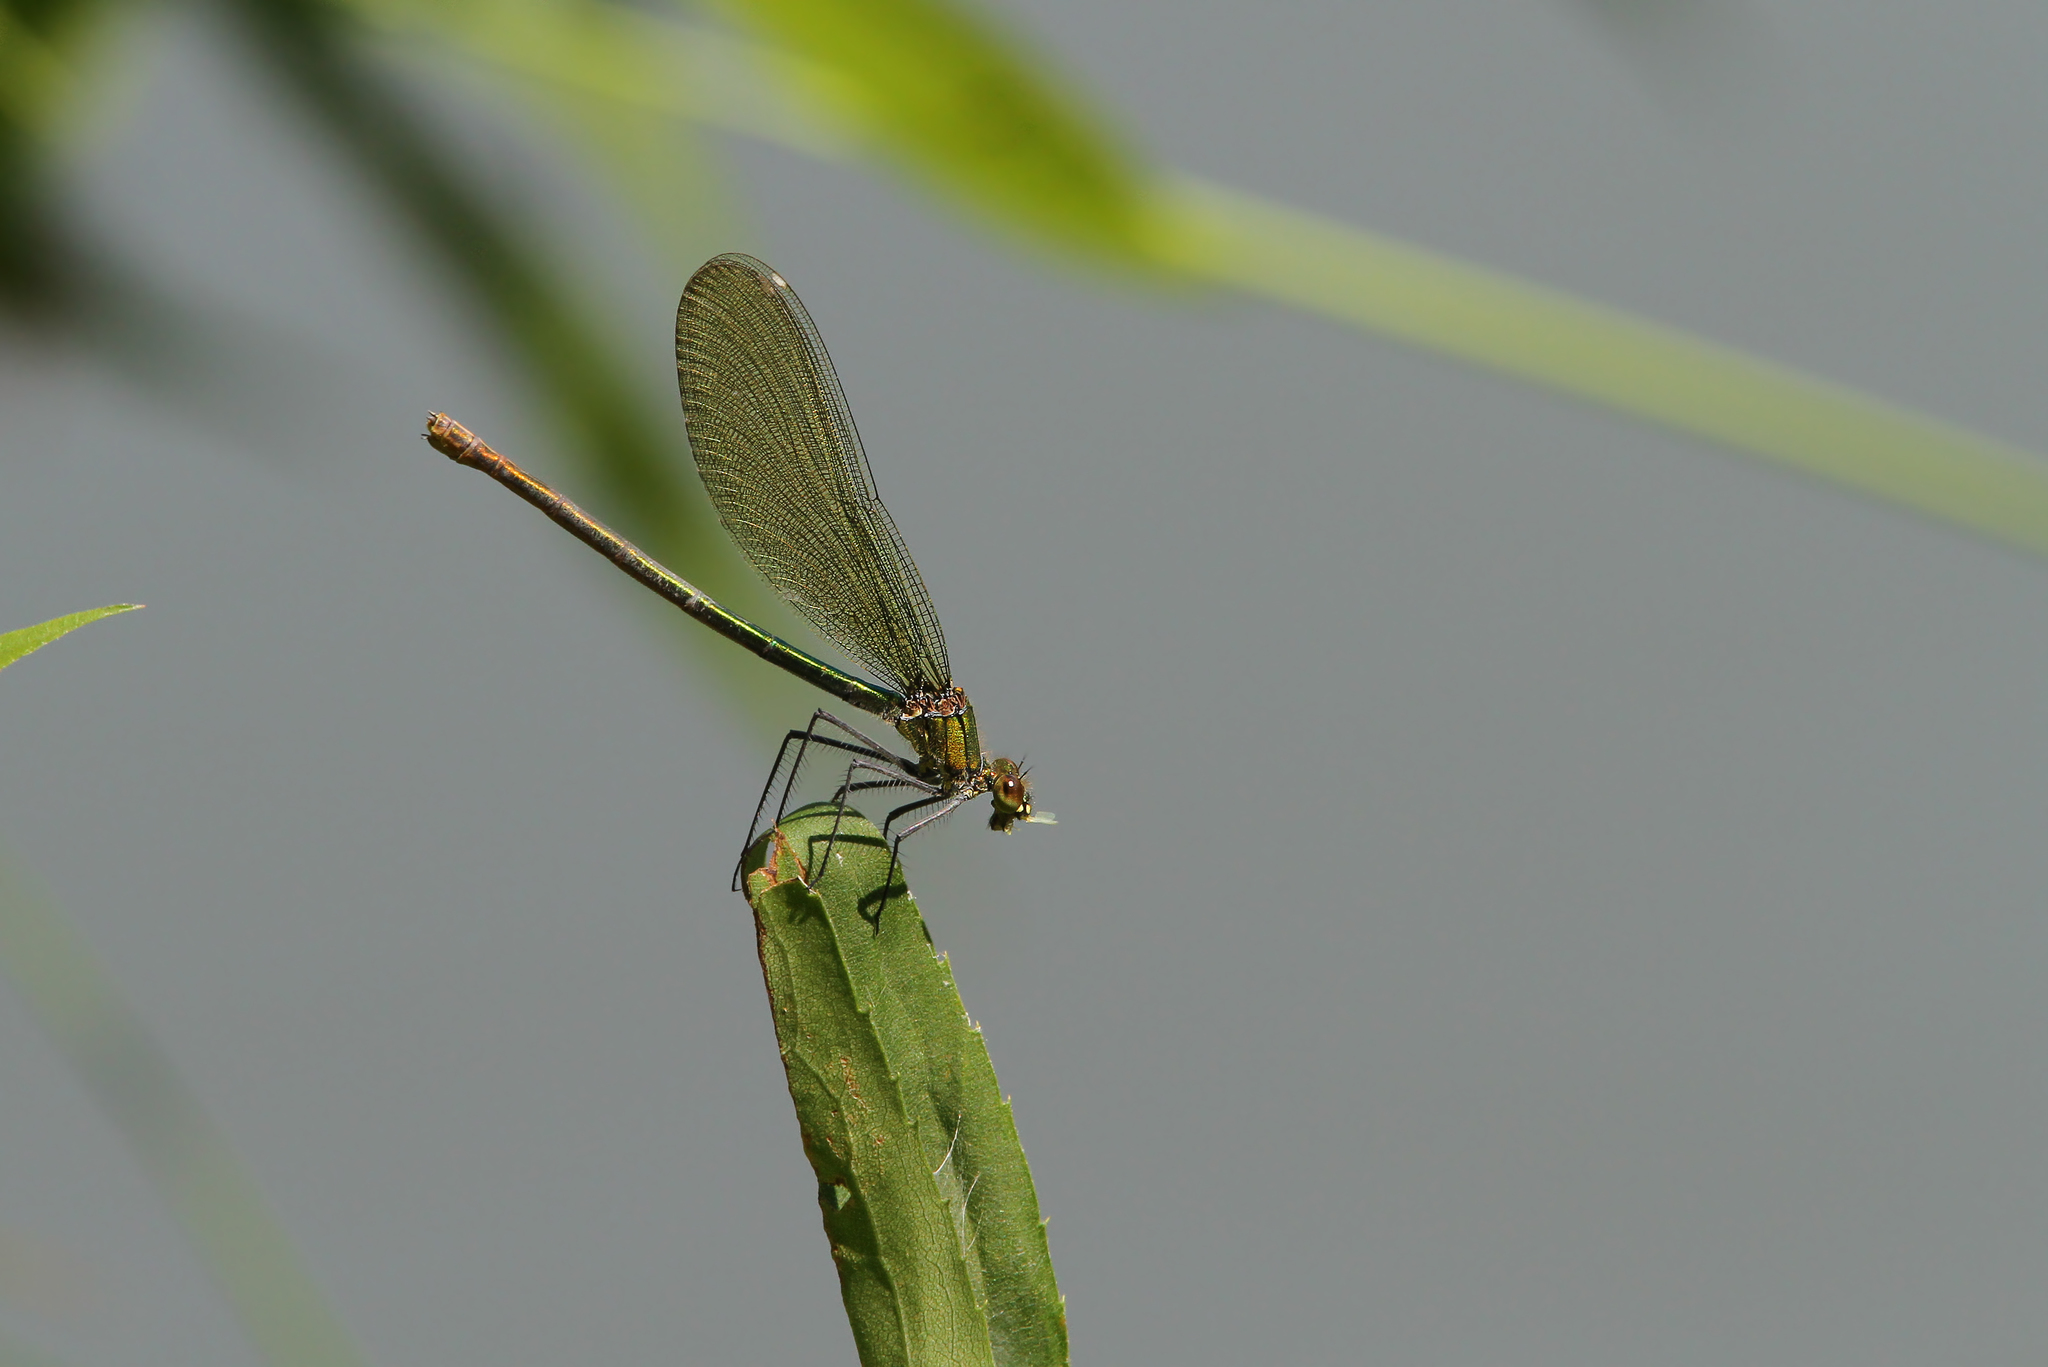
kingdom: Animalia
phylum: Arthropoda
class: Insecta
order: Odonata
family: Calopterygidae
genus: Calopteryx
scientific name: Calopteryx splendens
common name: Banded demoiselle
